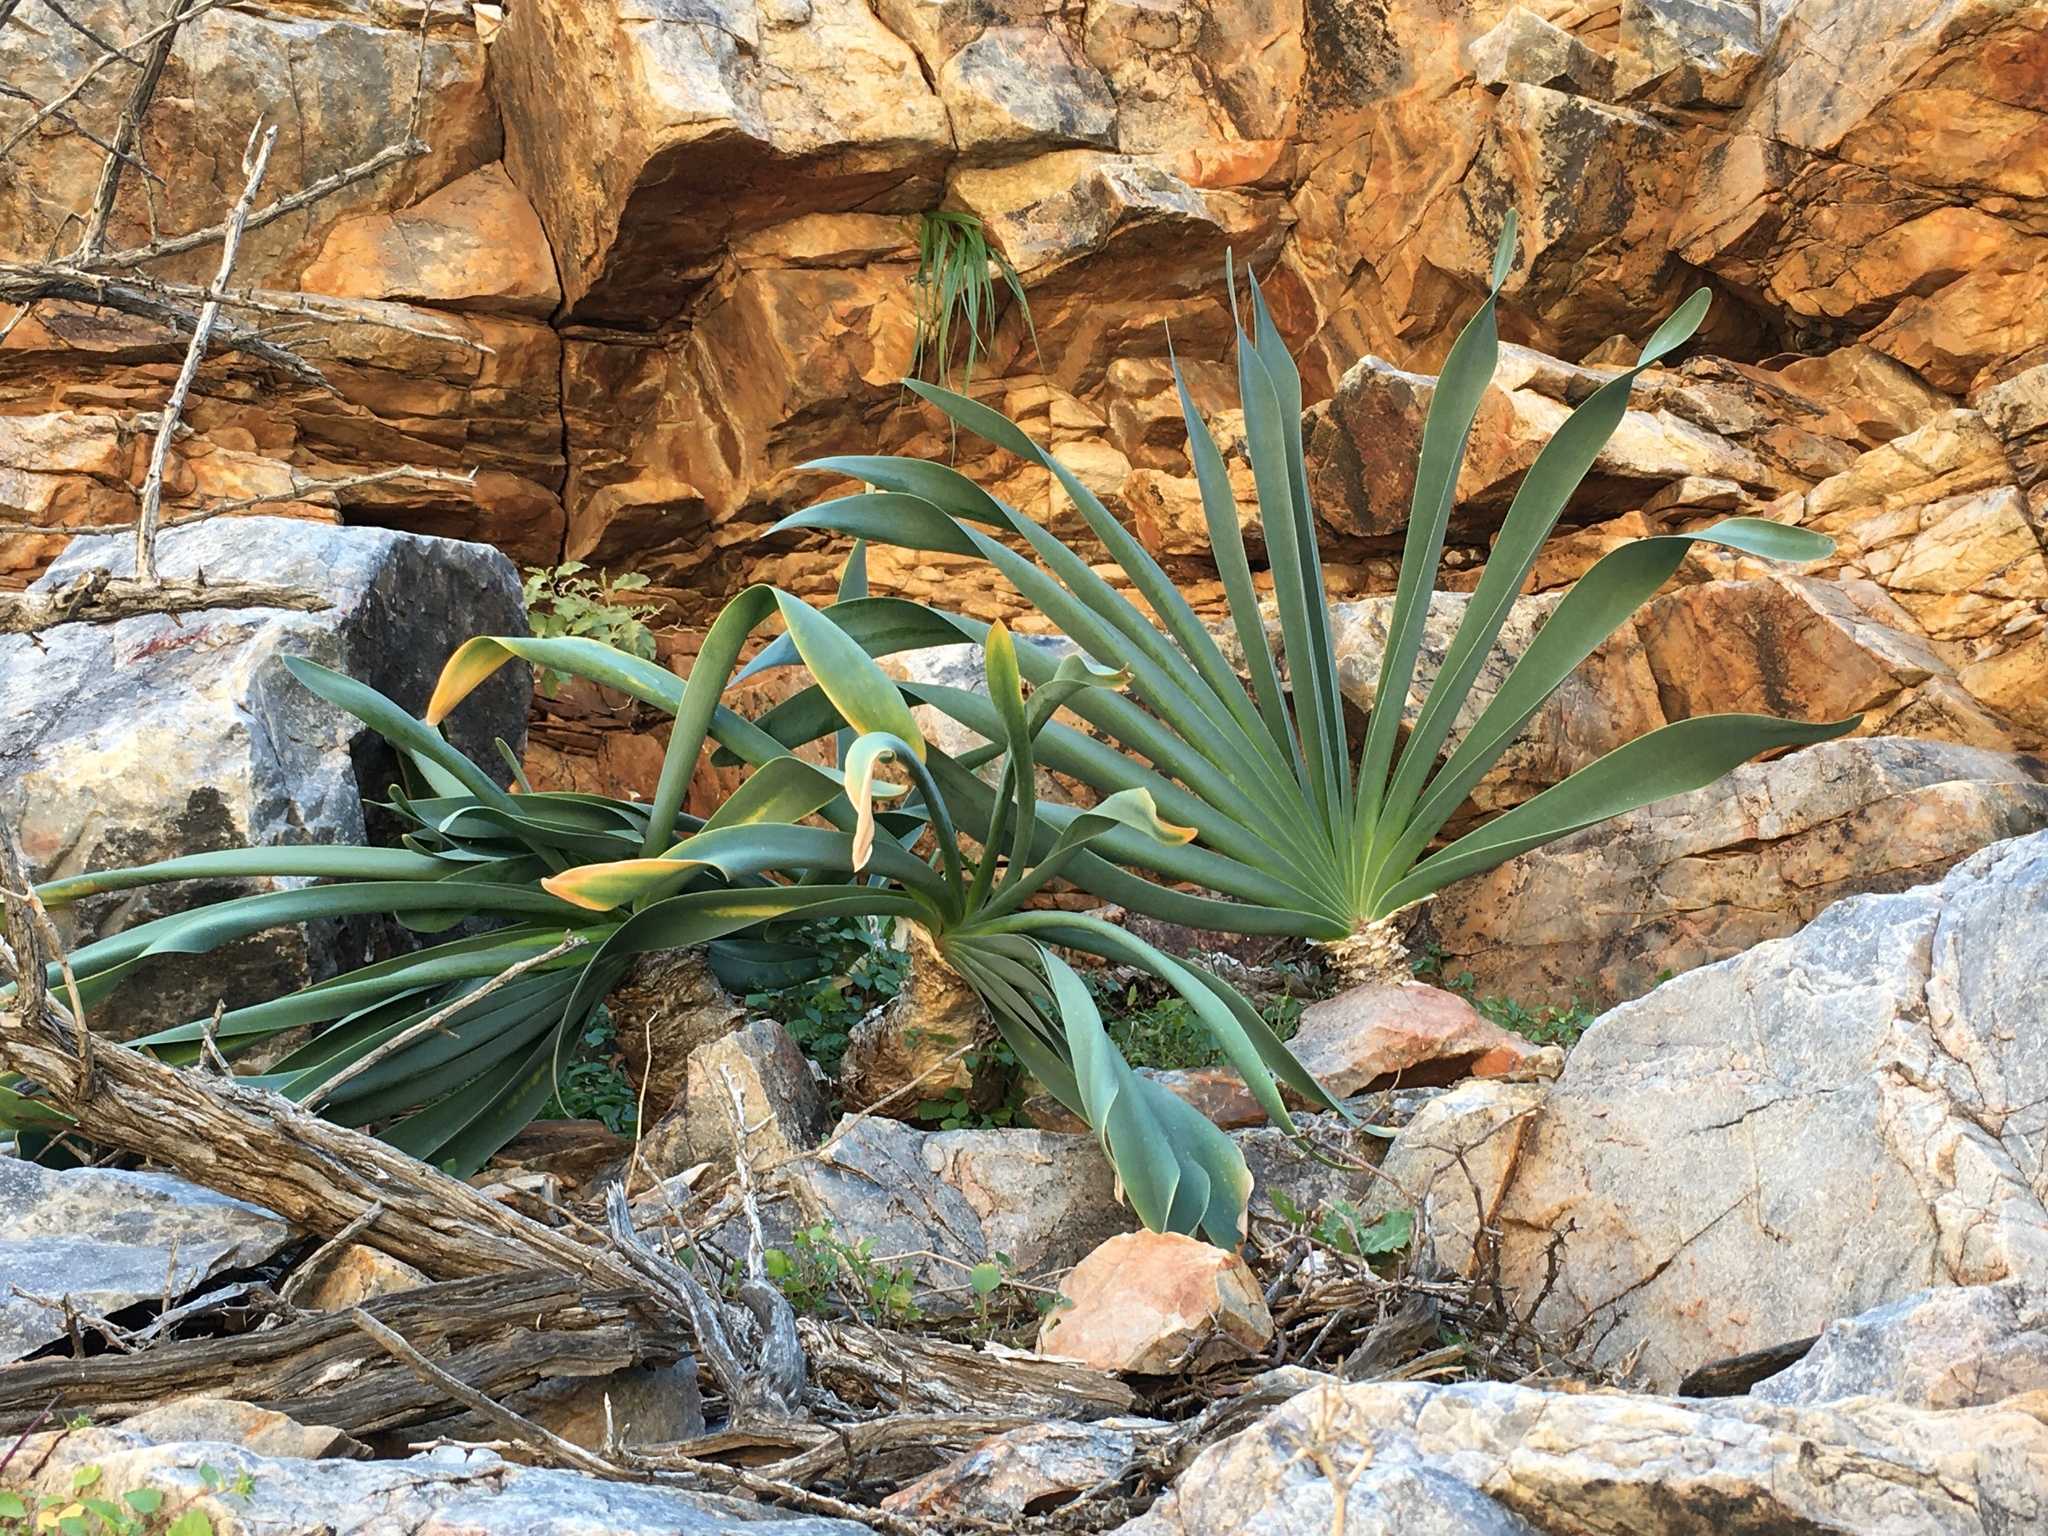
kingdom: Plantae
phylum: Tracheophyta
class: Liliopsida
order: Asparagales
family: Amaryllidaceae
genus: Boophone
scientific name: Boophone haemanthoides
